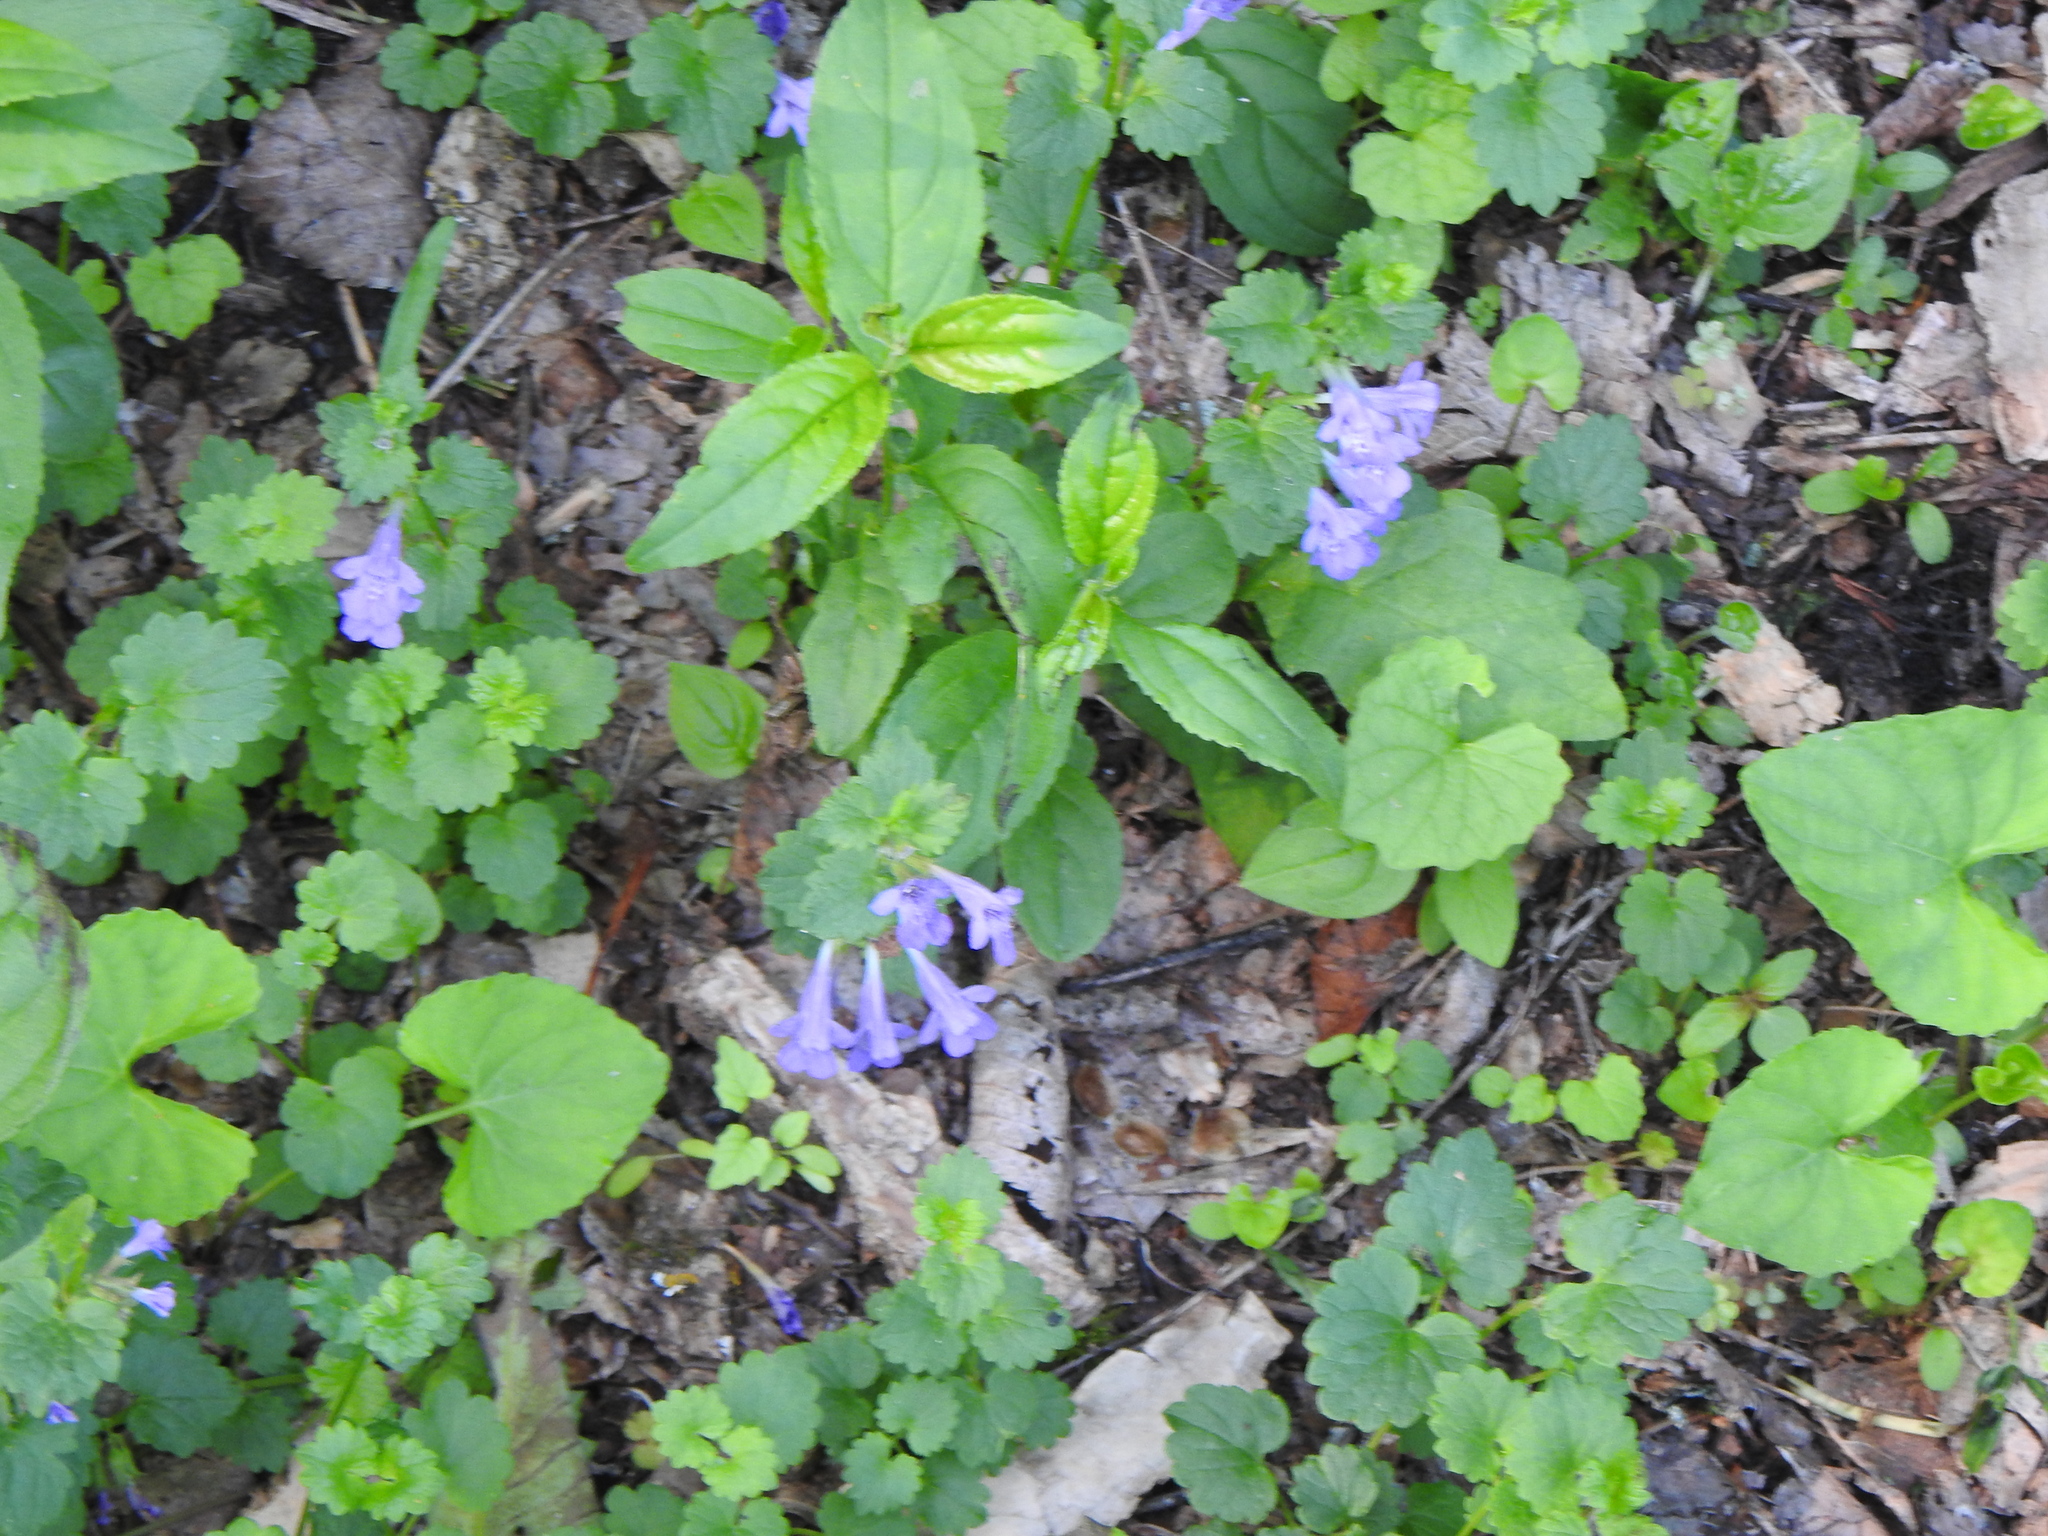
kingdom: Plantae
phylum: Tracheophyta
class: Magnoliopsida
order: Lamiales
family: Lamiaceae
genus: Glechoma
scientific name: Glechoma hederacea
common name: Ground ivy
